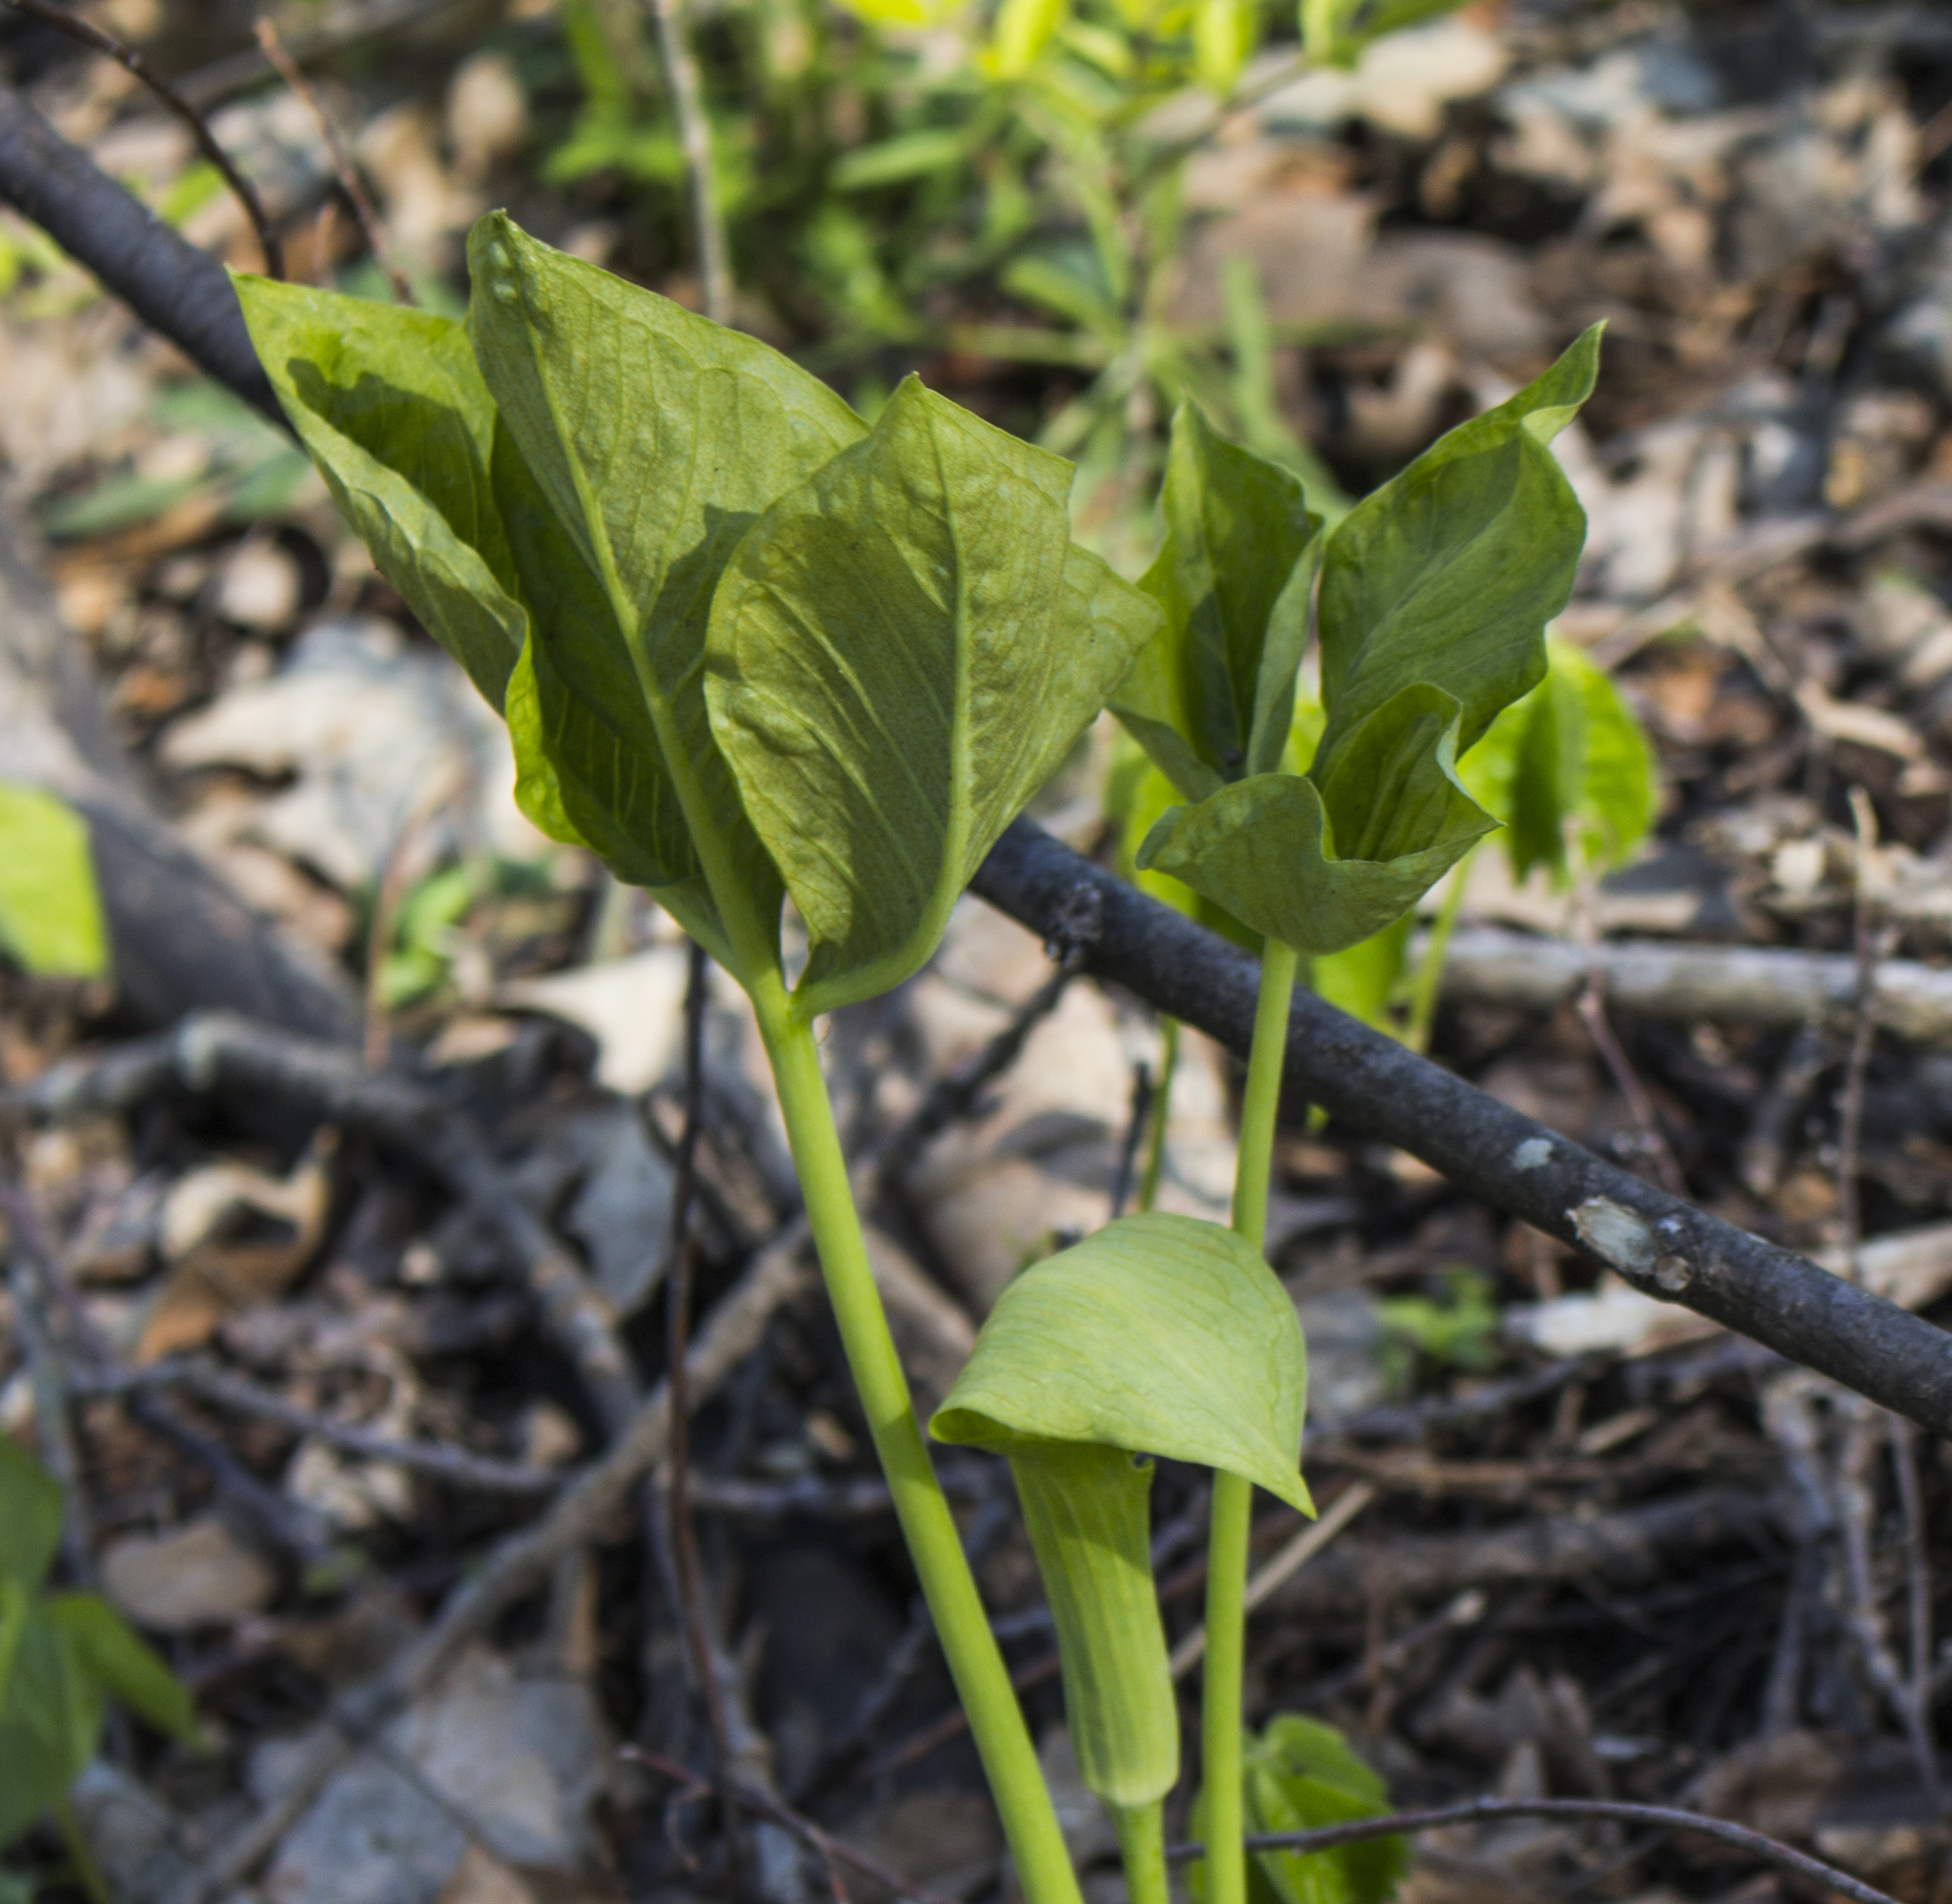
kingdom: Plantae
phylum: Tracheophyta
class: Liliopsida
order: Alismatales
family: Araceae
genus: Arisaema
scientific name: Arisaema triphyllum
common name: Jack-in-the-pulpit
